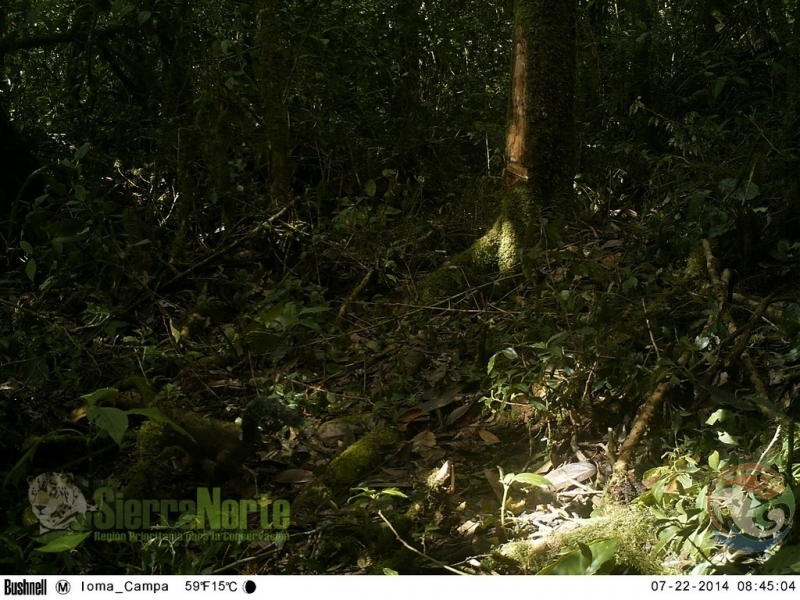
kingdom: Animalia
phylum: Chordata
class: Mammalia
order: Rodentia
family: Sciuridae
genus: Sciurus
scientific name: Sciurus deppei
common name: Deppe's squirrel
